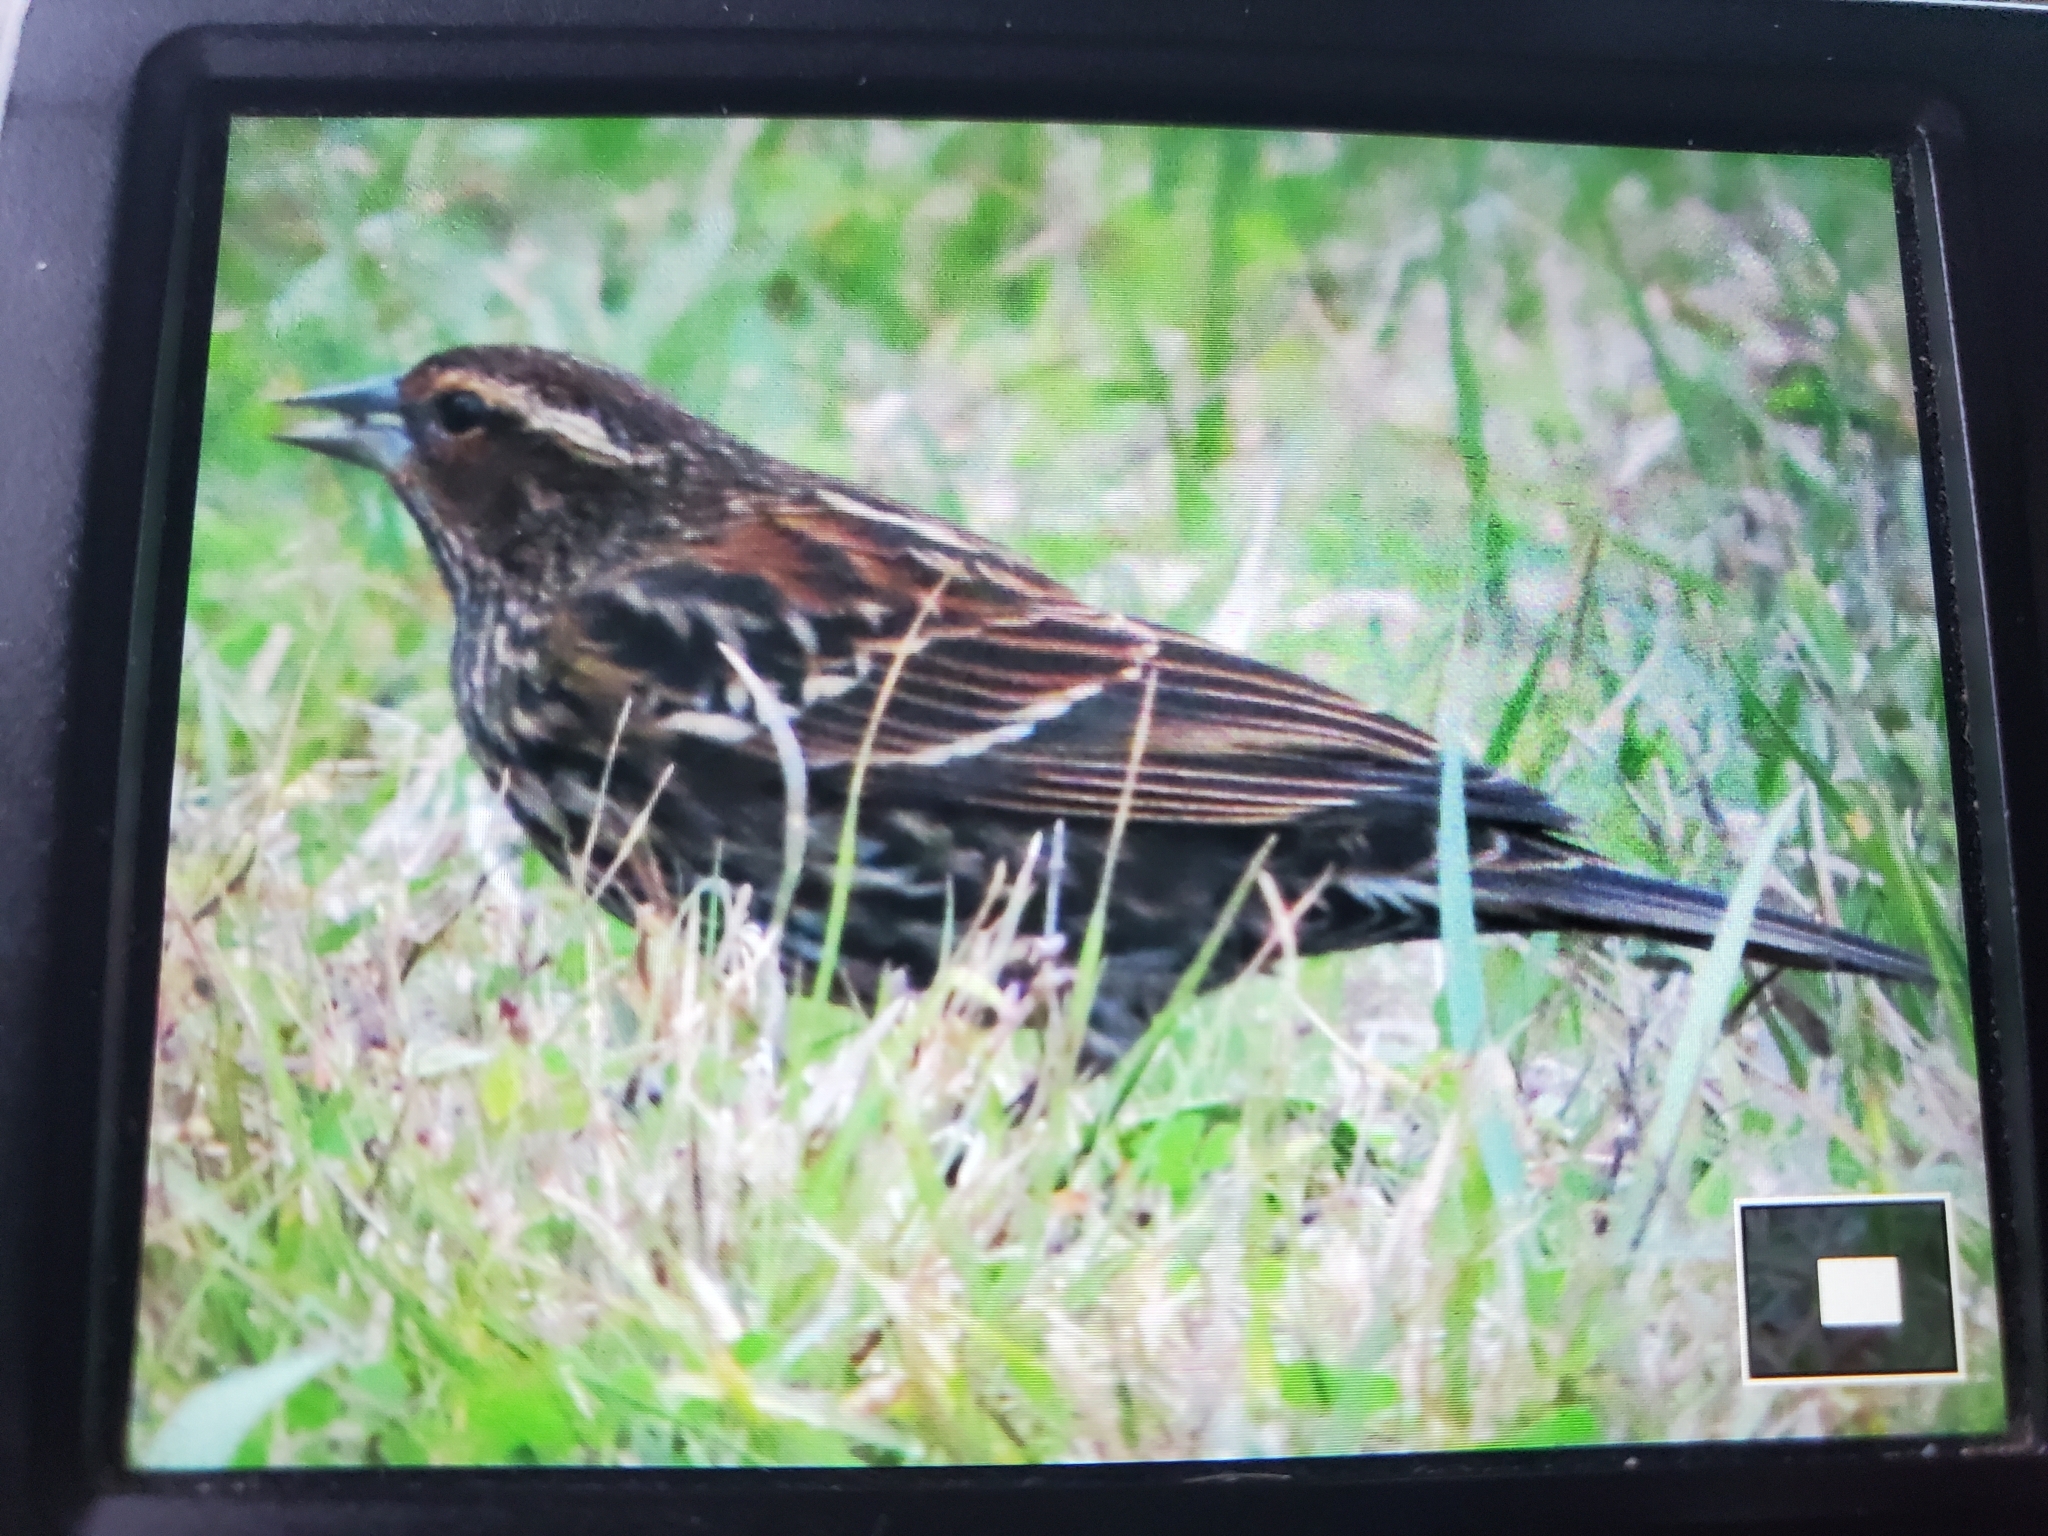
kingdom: Animalia
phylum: Chordata
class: Aves
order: Passeriformes
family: Icteridae
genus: Agelaius
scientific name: Agelaius phoeniceus
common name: Red-winged blackbird
